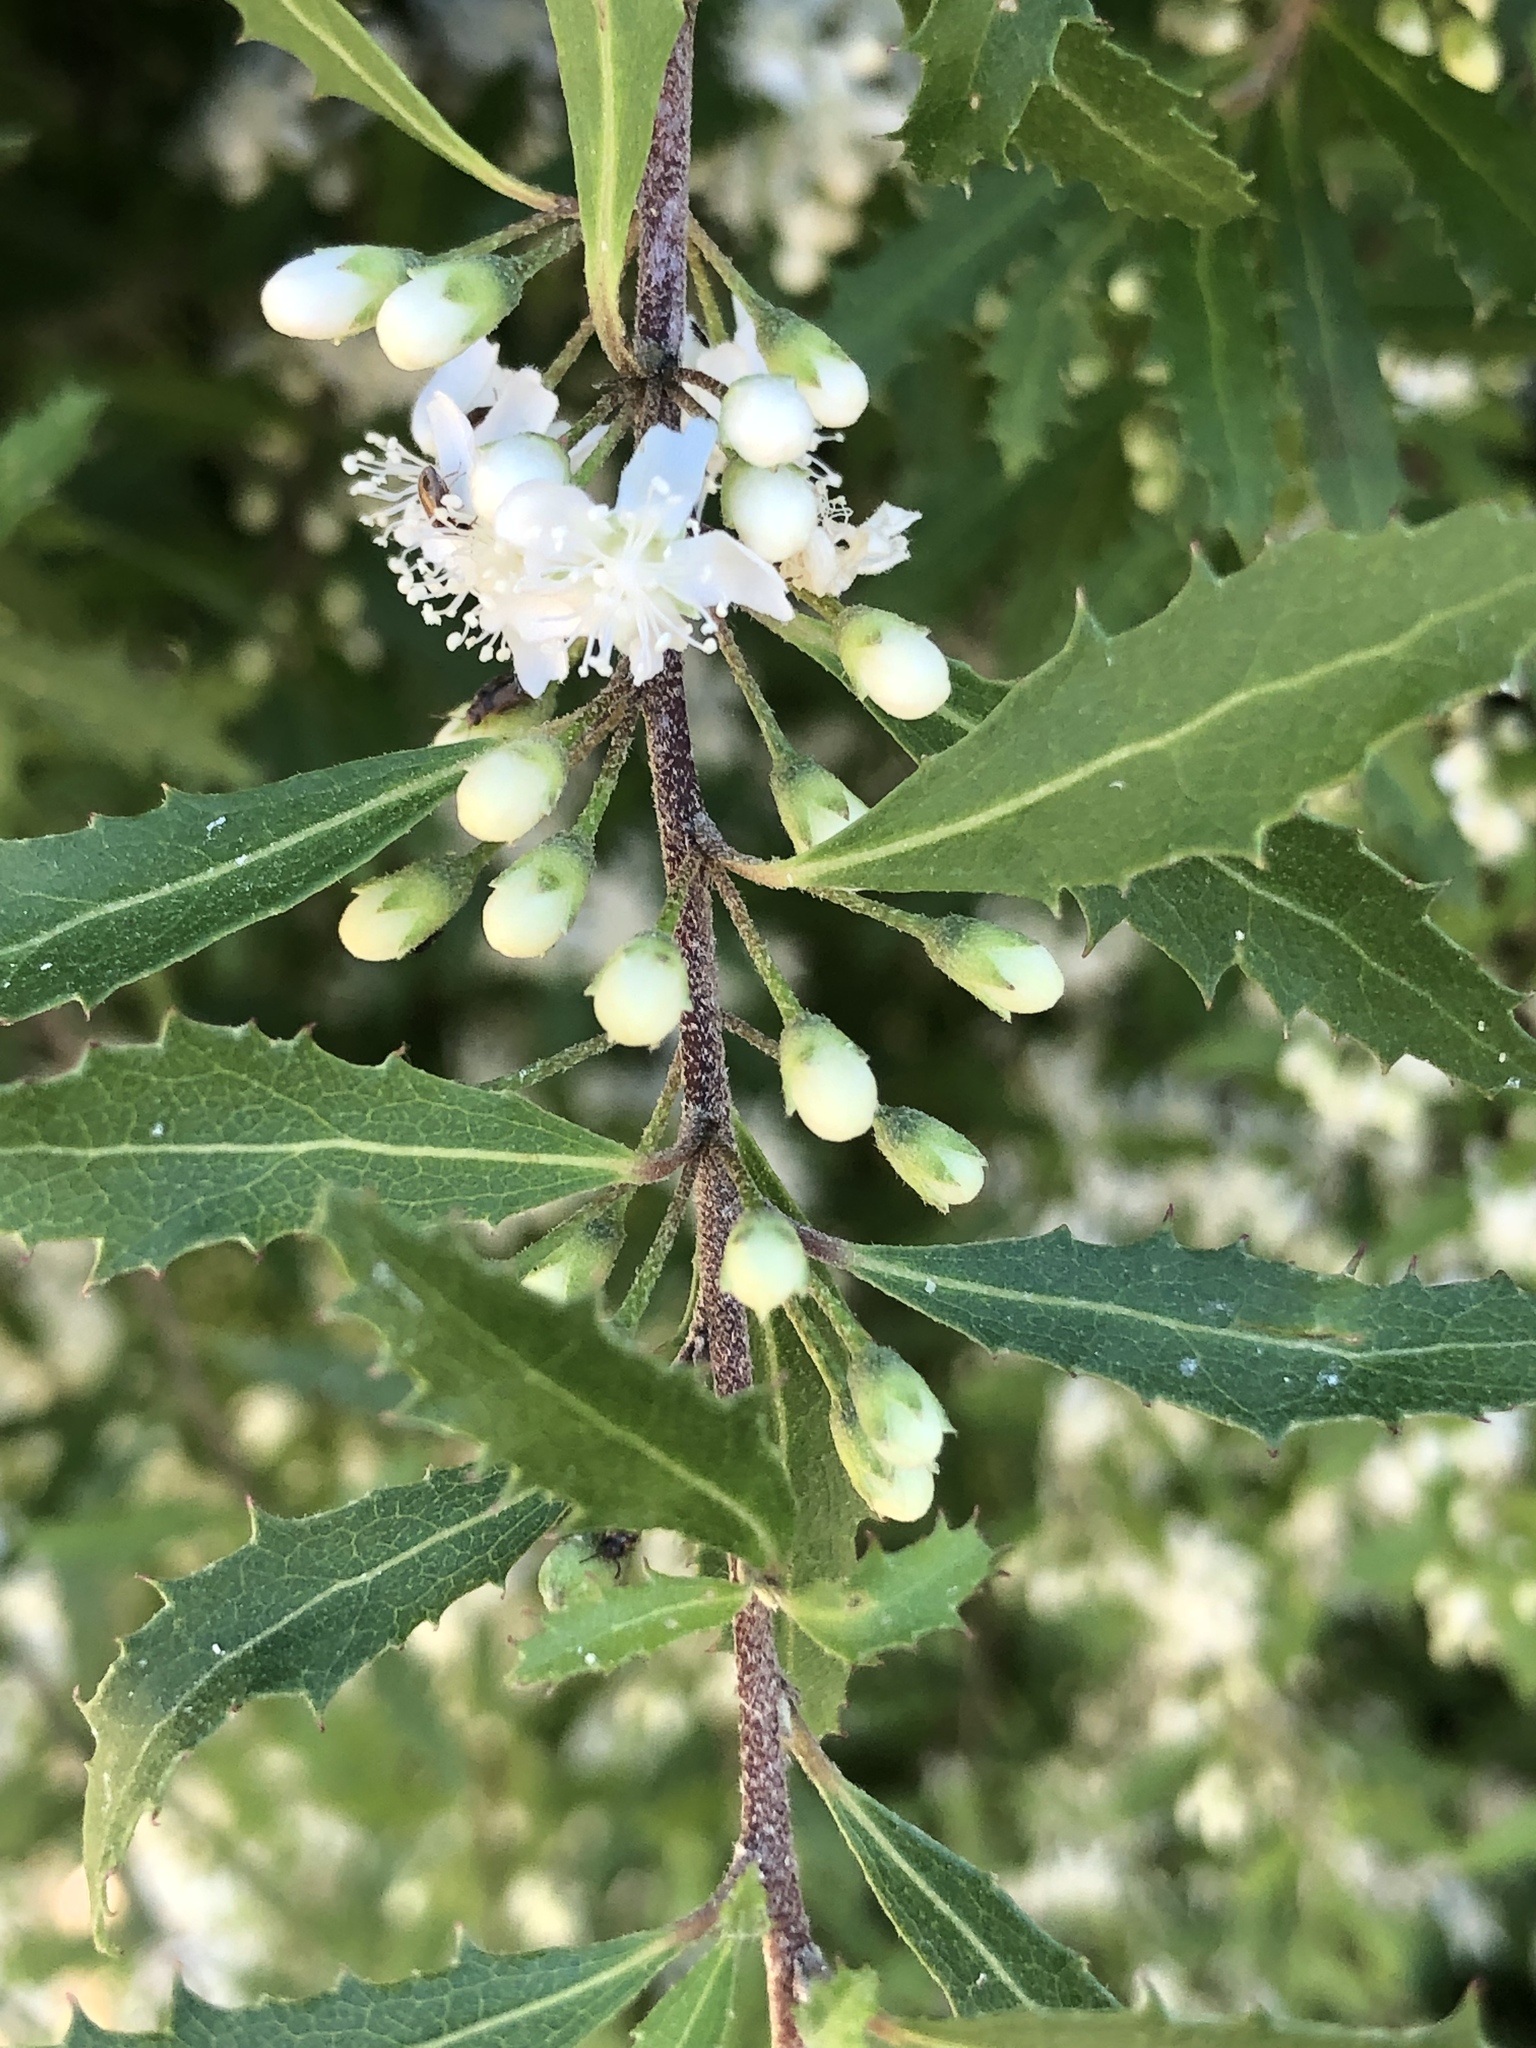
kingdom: Plantae
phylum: Tracheophyta
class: Magnoliopsida
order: Malvales
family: Malvaceae
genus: Hoheria
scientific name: Hoheria angustifolia
